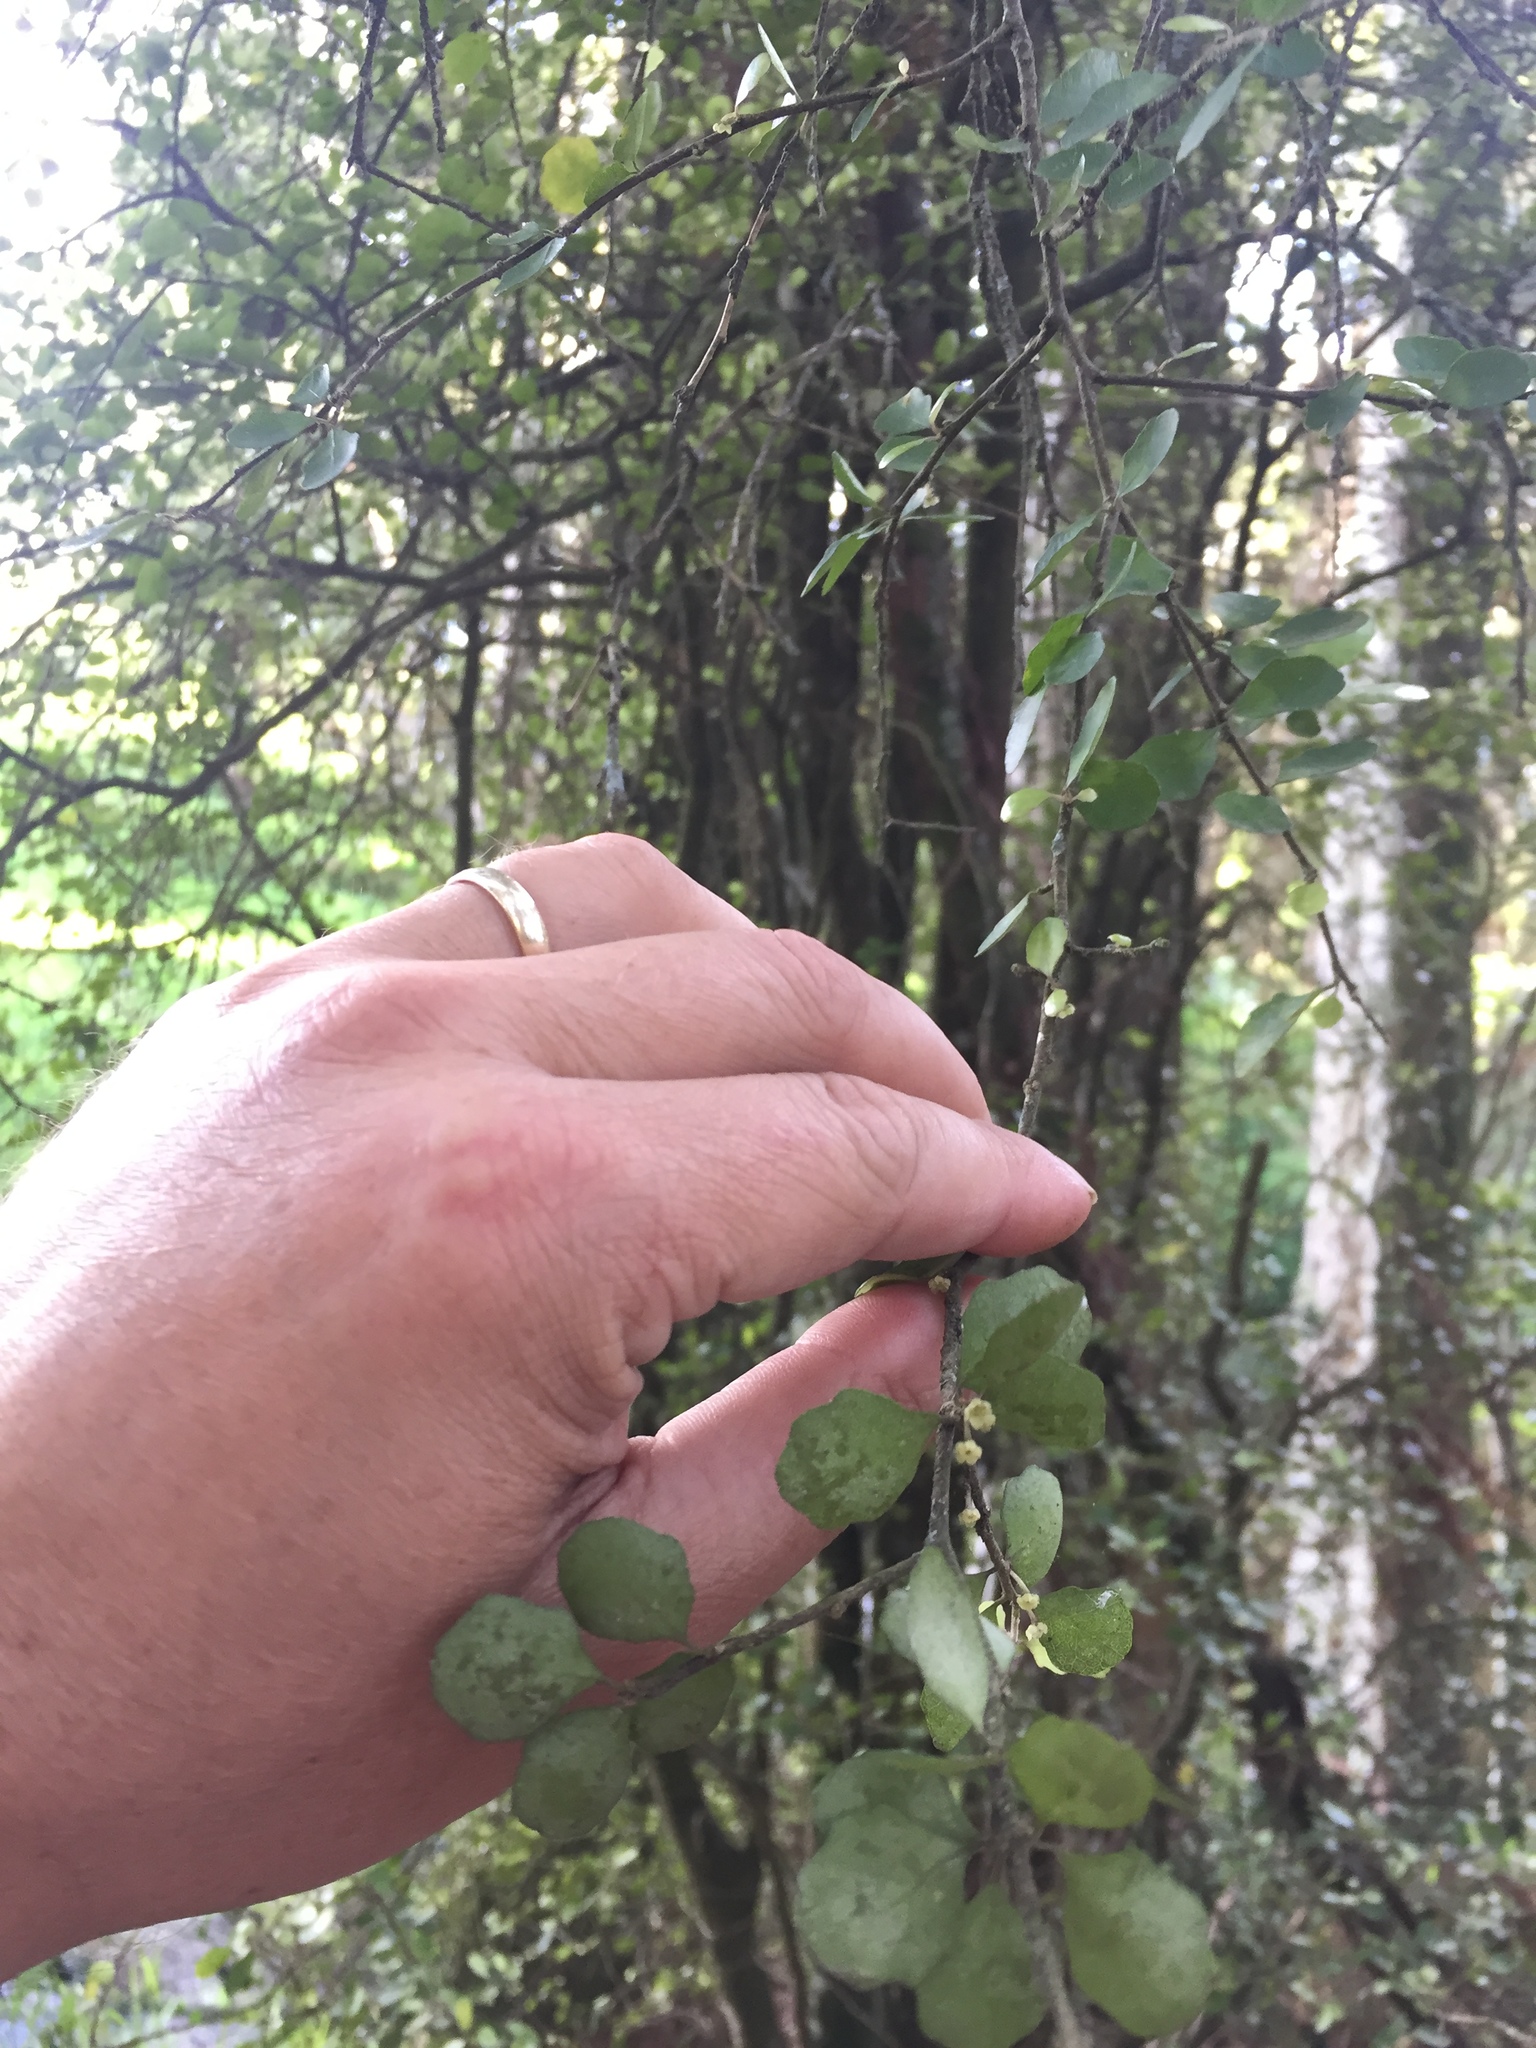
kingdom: Plantae
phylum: Tracheophyta
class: Magnoliopsida
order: Malpighiales
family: Violaceae
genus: Melicytus
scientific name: Melicytus micranthus
